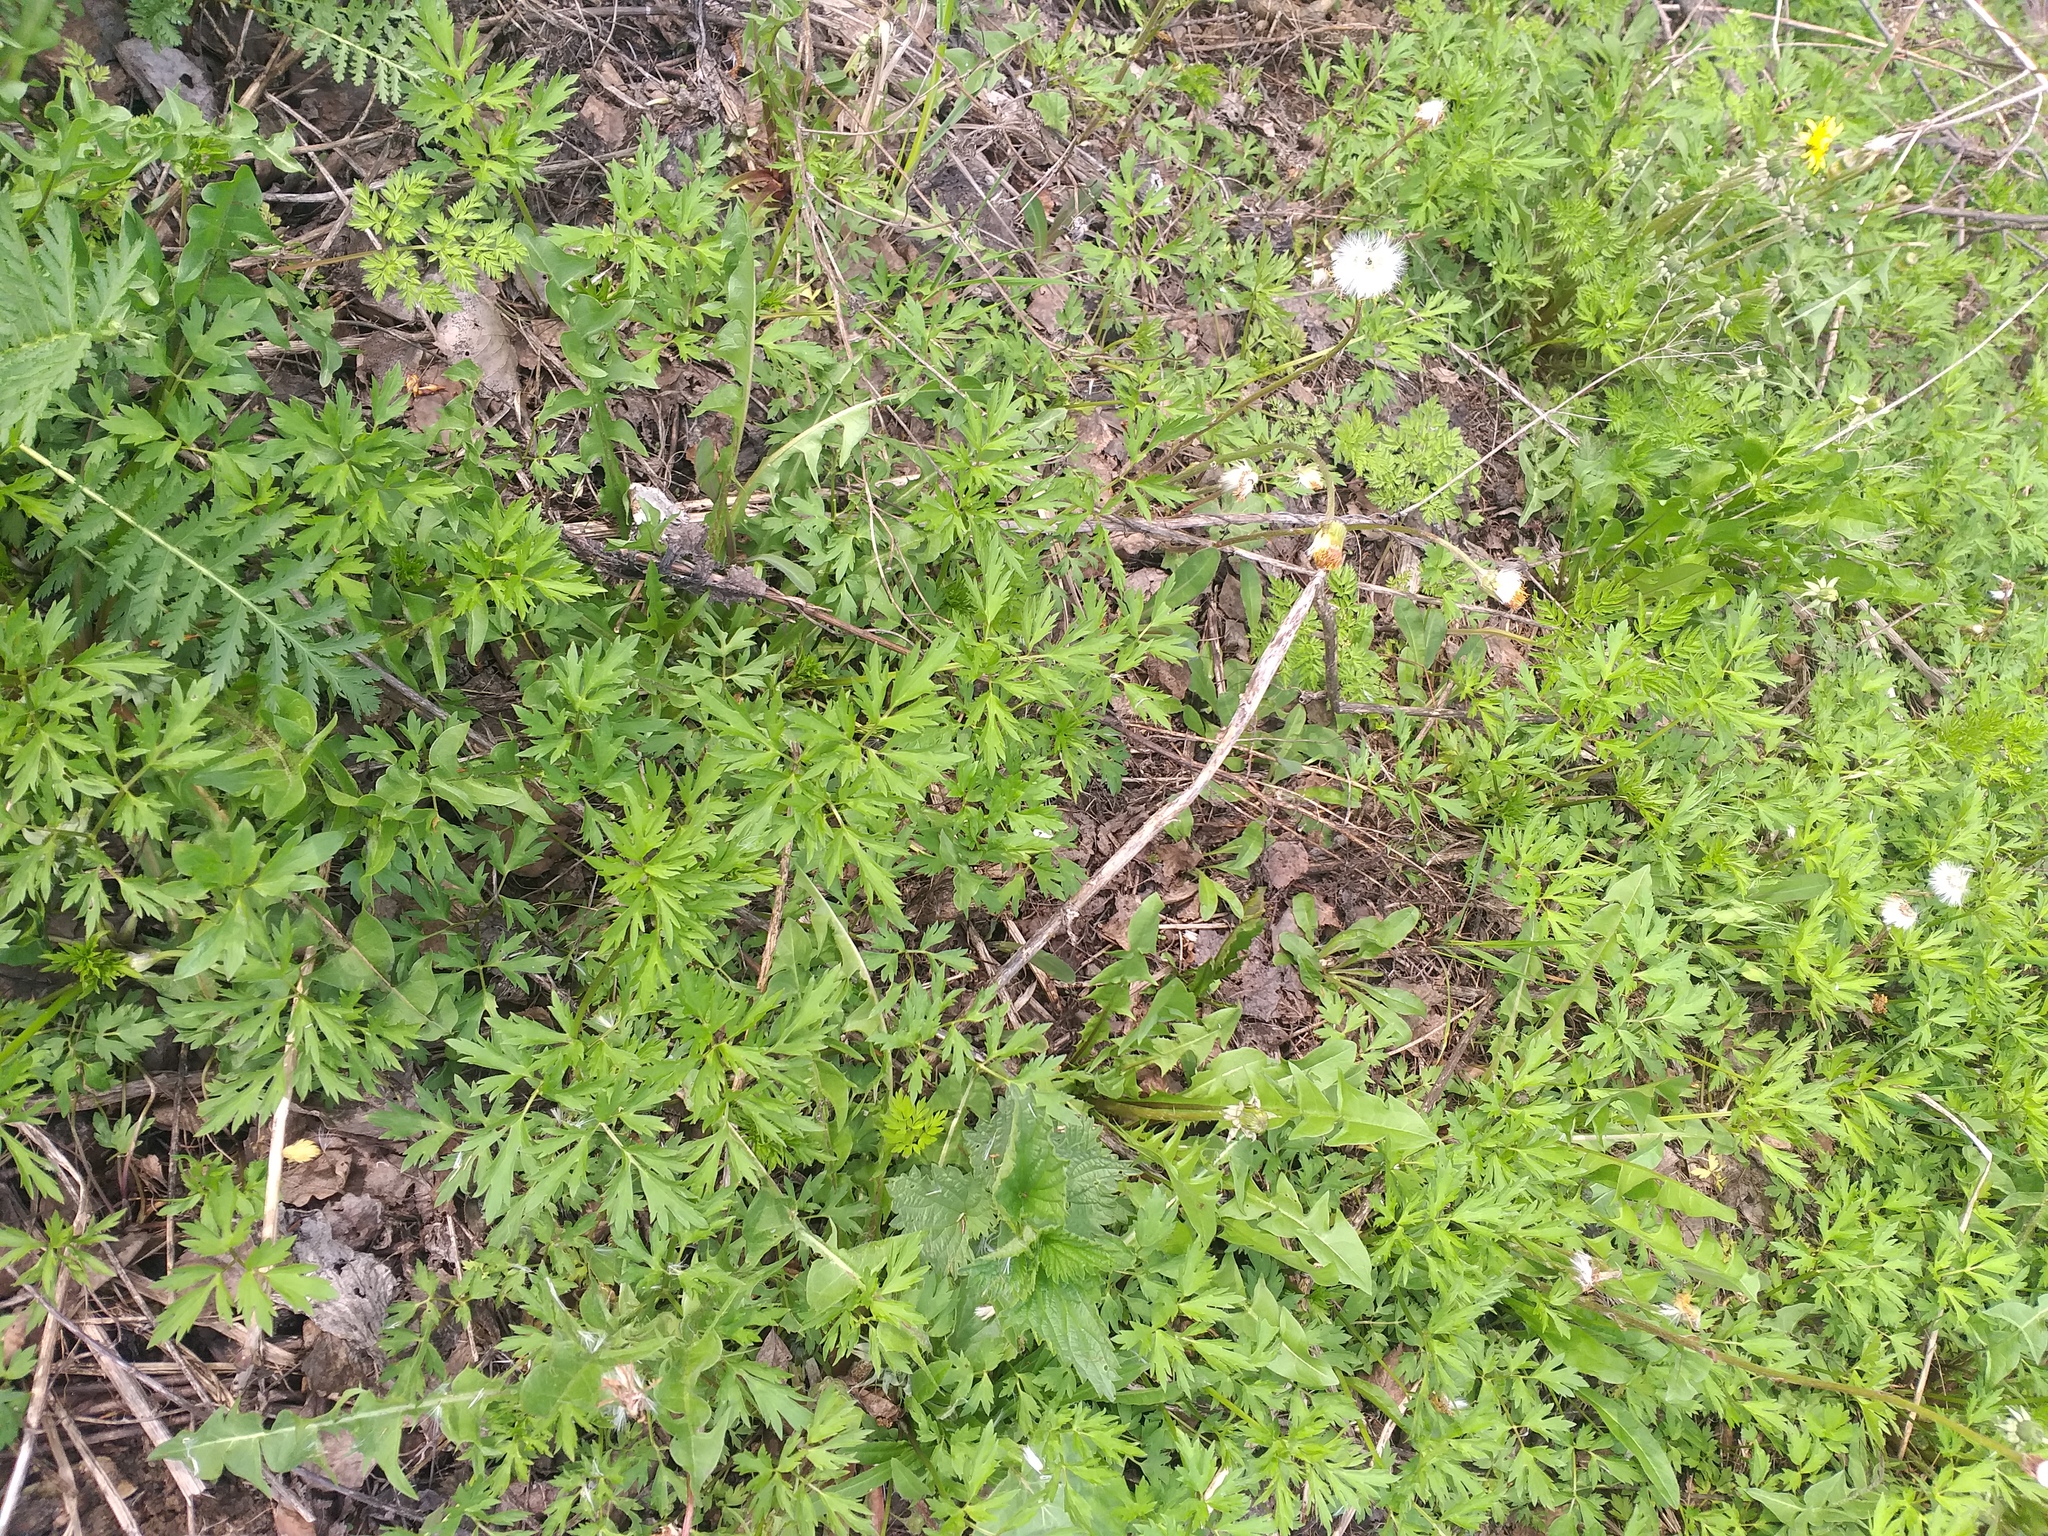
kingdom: Plantae
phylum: Tracheophyta
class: Magnoliopsida
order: Ranunculales
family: Ranunculaceae
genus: Ranunculus
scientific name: Ranunculus repens
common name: Creeping buttercup
